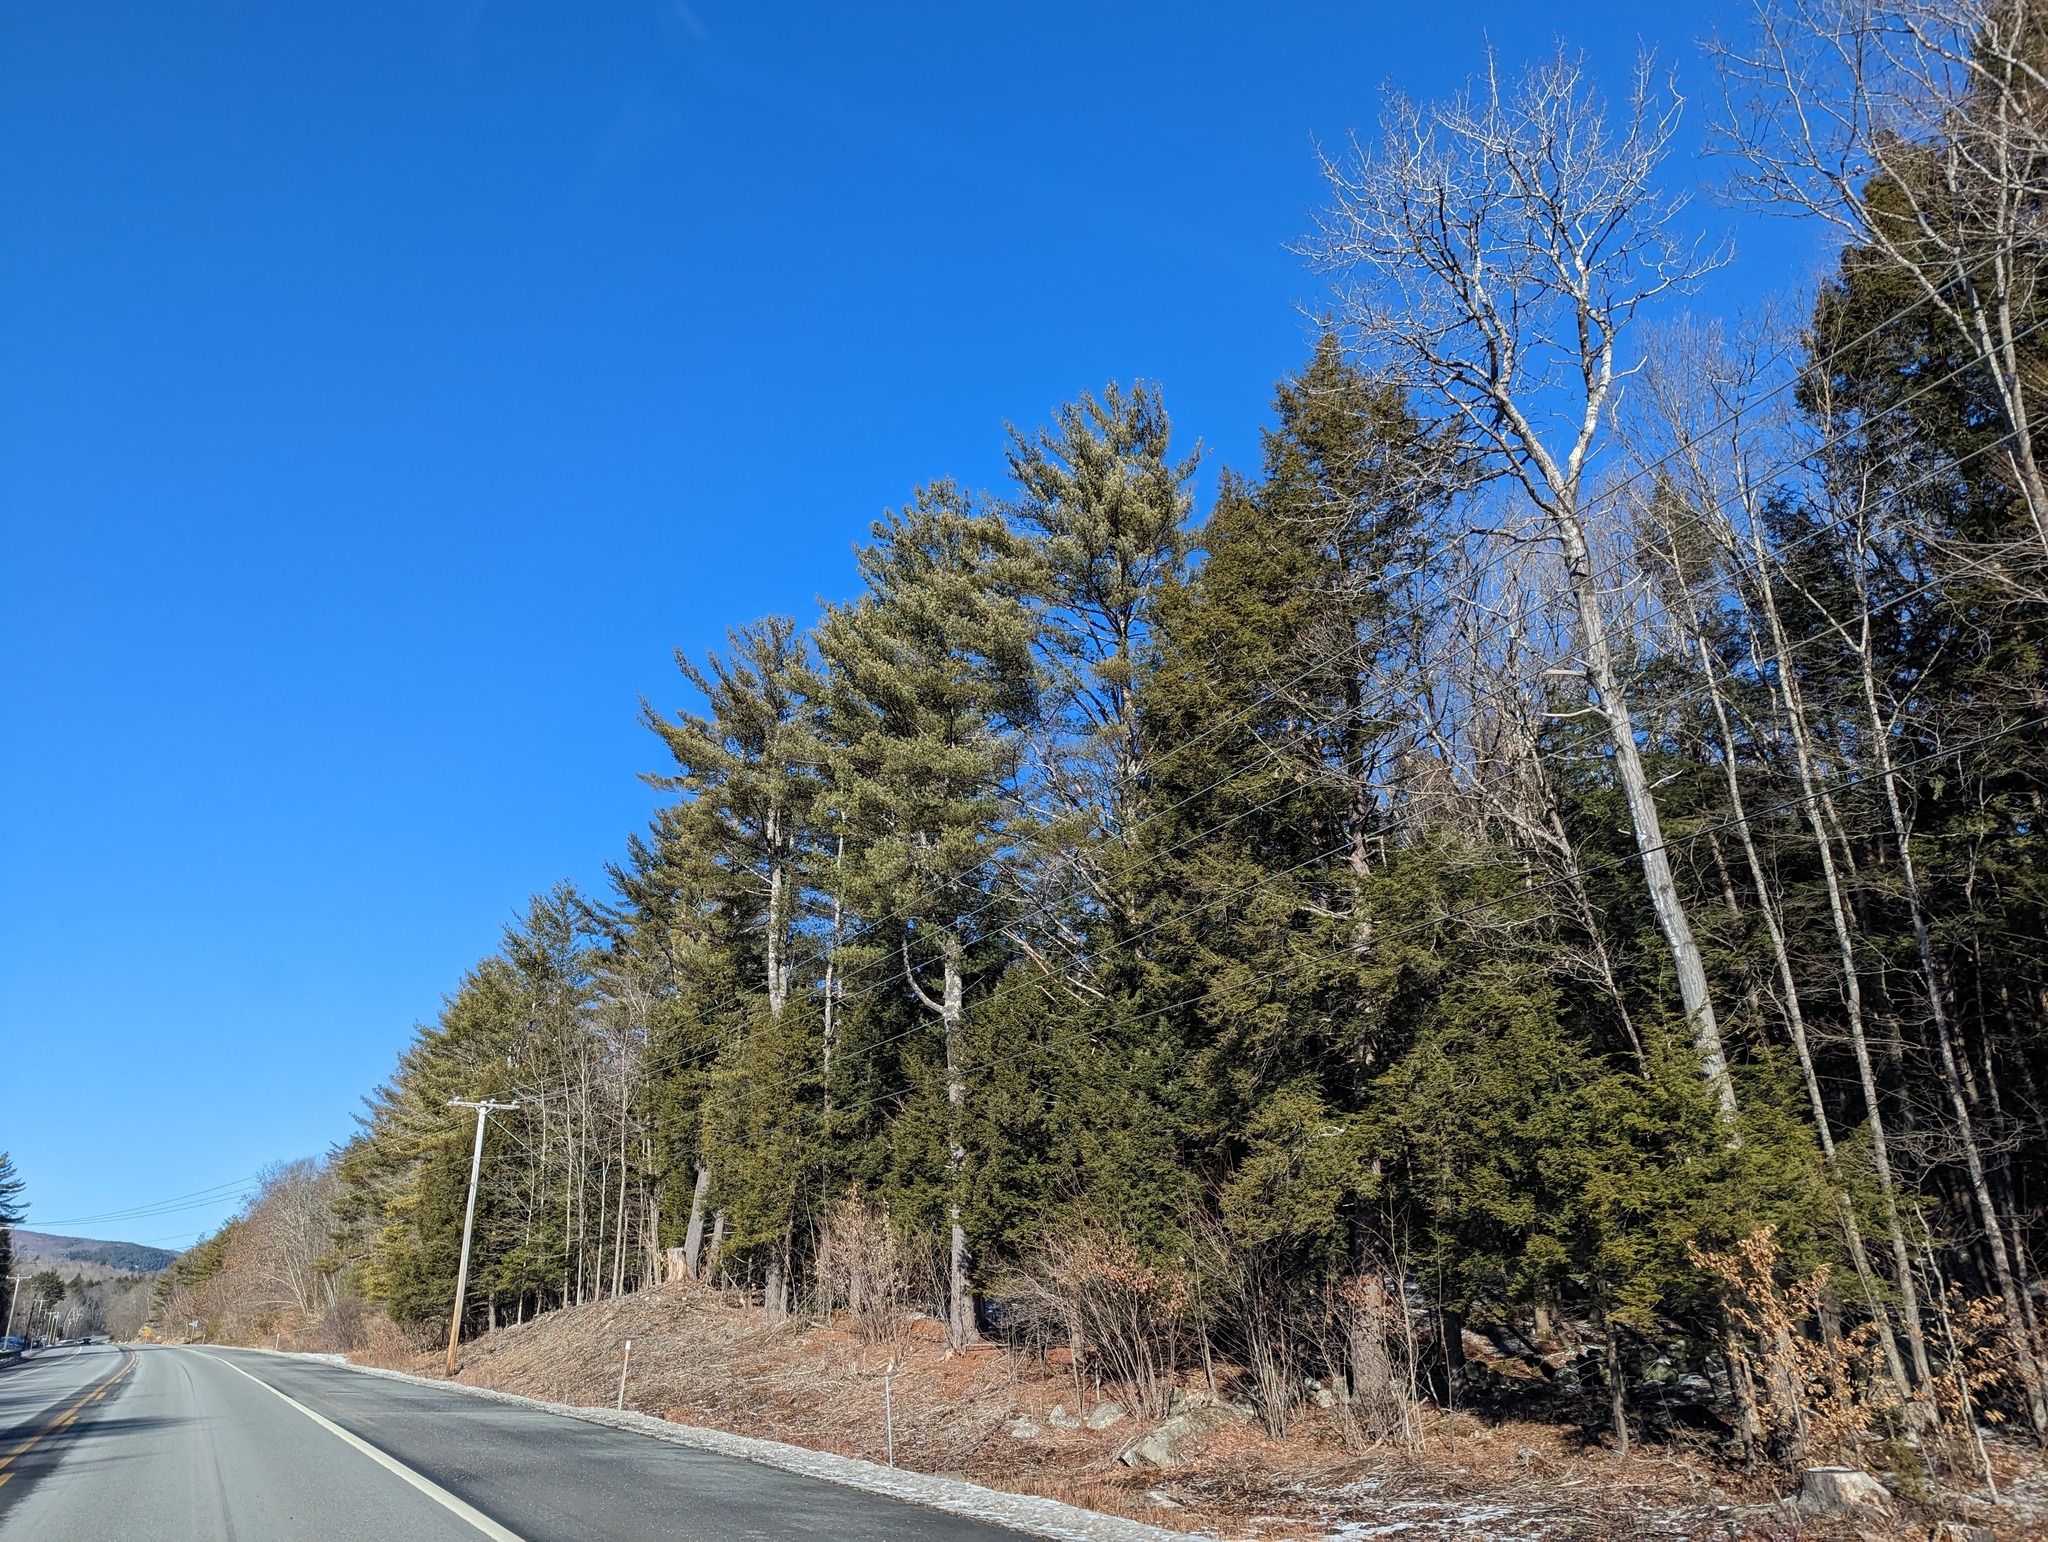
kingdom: Plantae
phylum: Tracheophyta
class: Pinopsida
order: Pinales
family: Pinaceae
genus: Pinus
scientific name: Pinus strobus
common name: Weymouth pine
